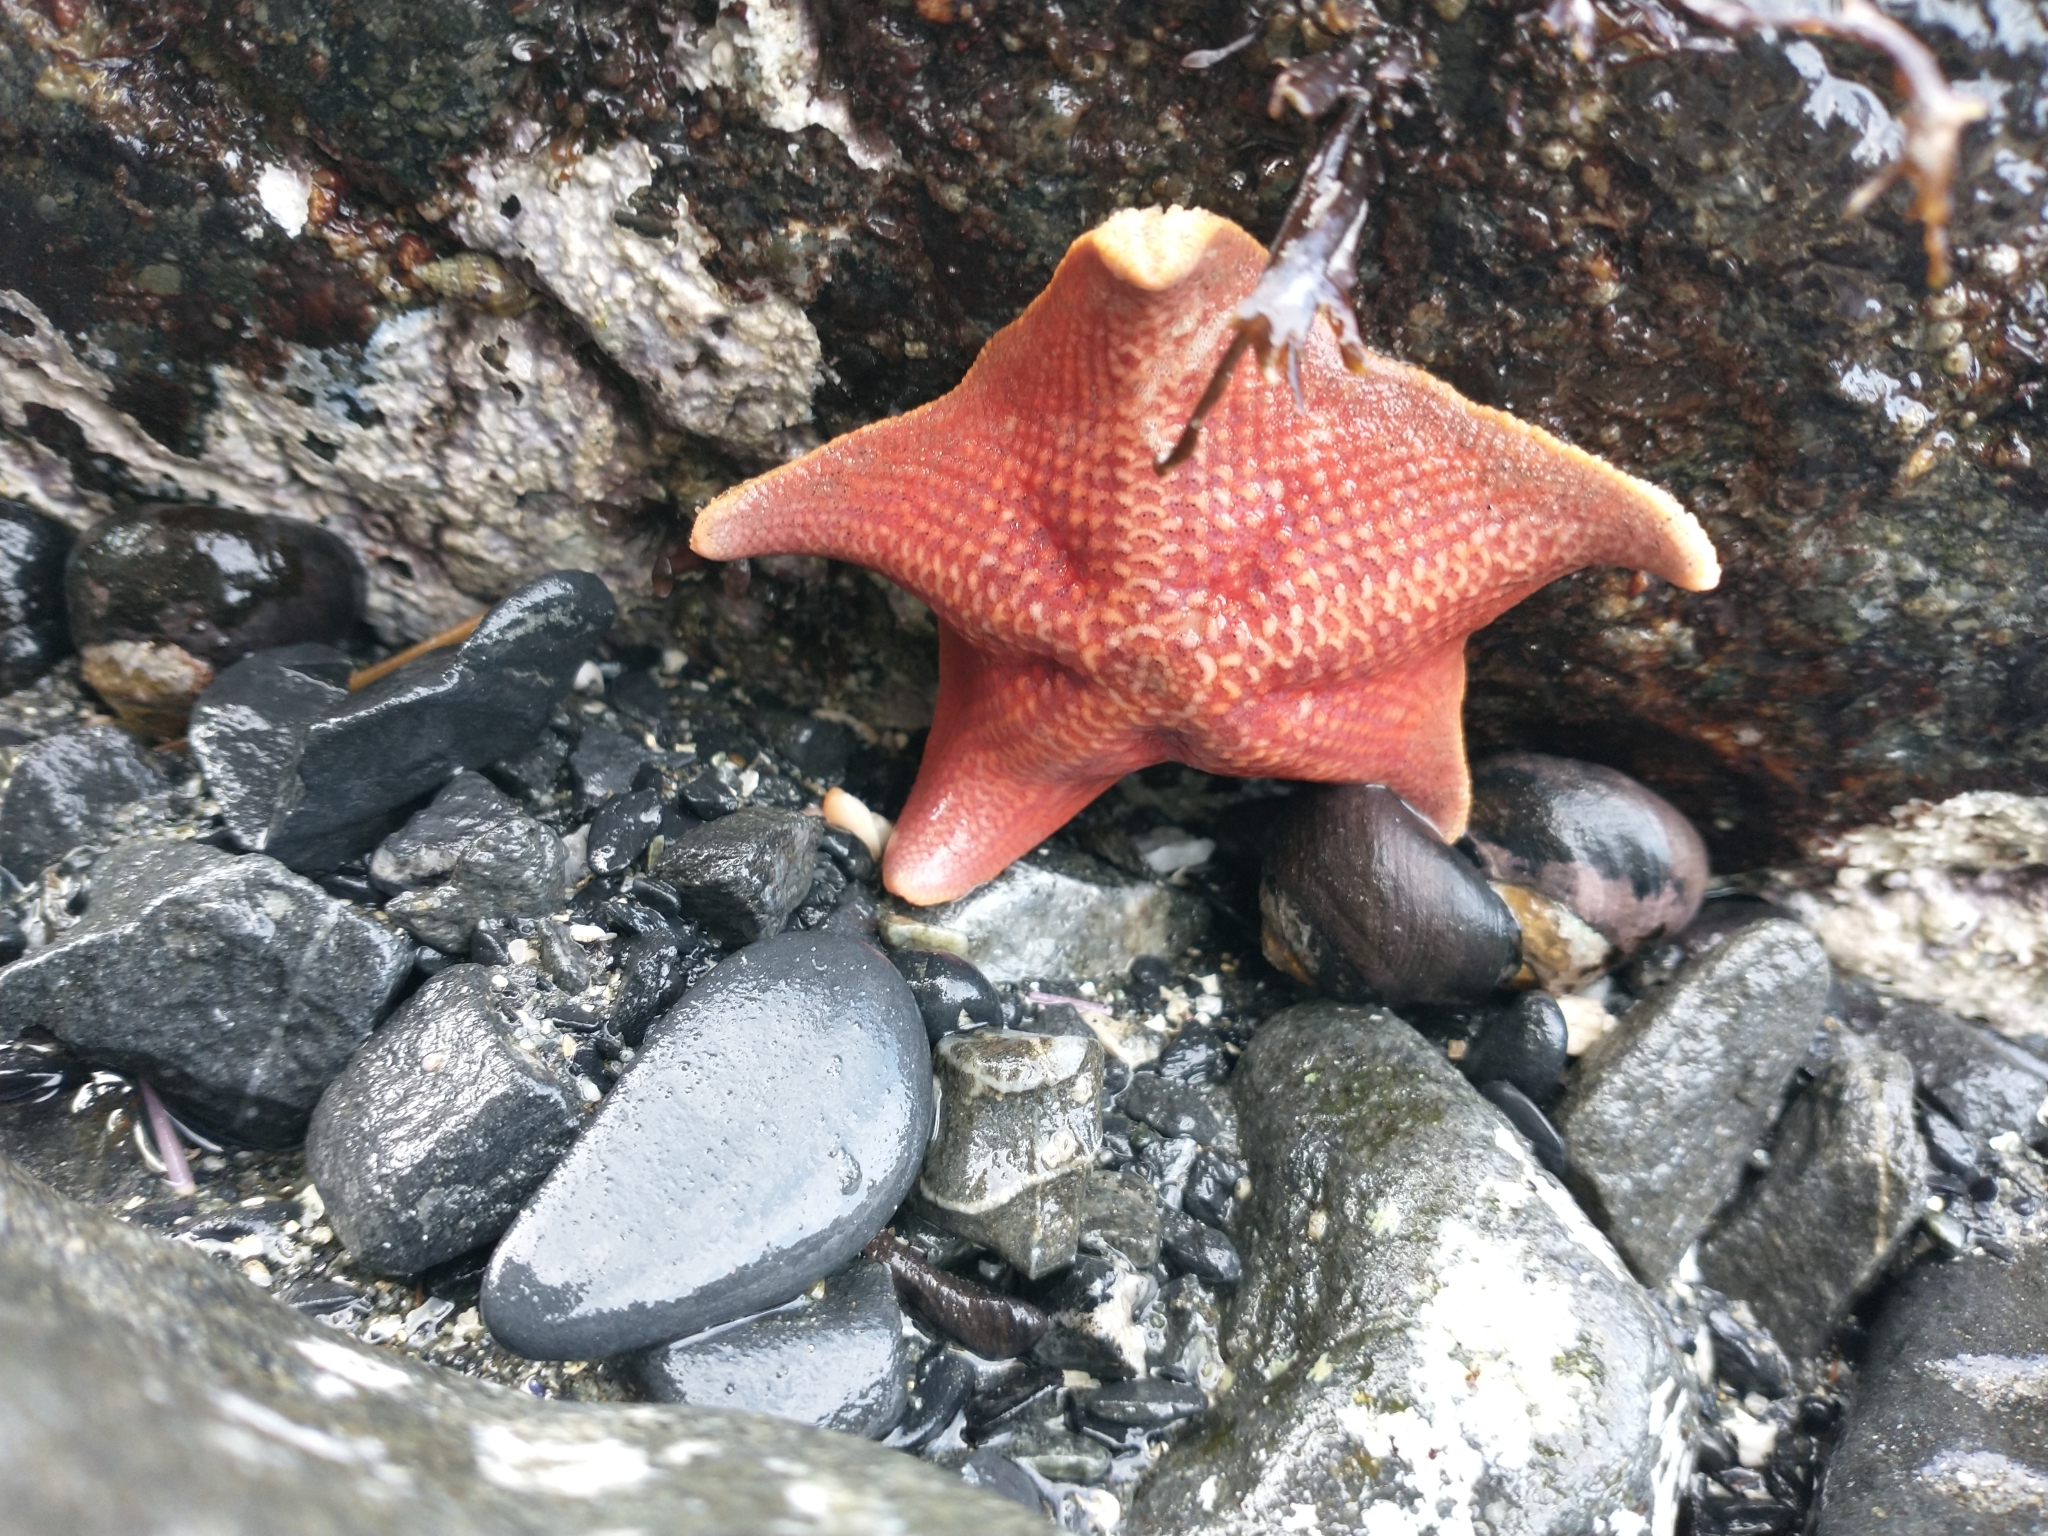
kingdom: Animalia
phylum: Echinodermata
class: Asteroidea
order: Valvatida
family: Asterinidae
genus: Patiria
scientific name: Patiria miniata
